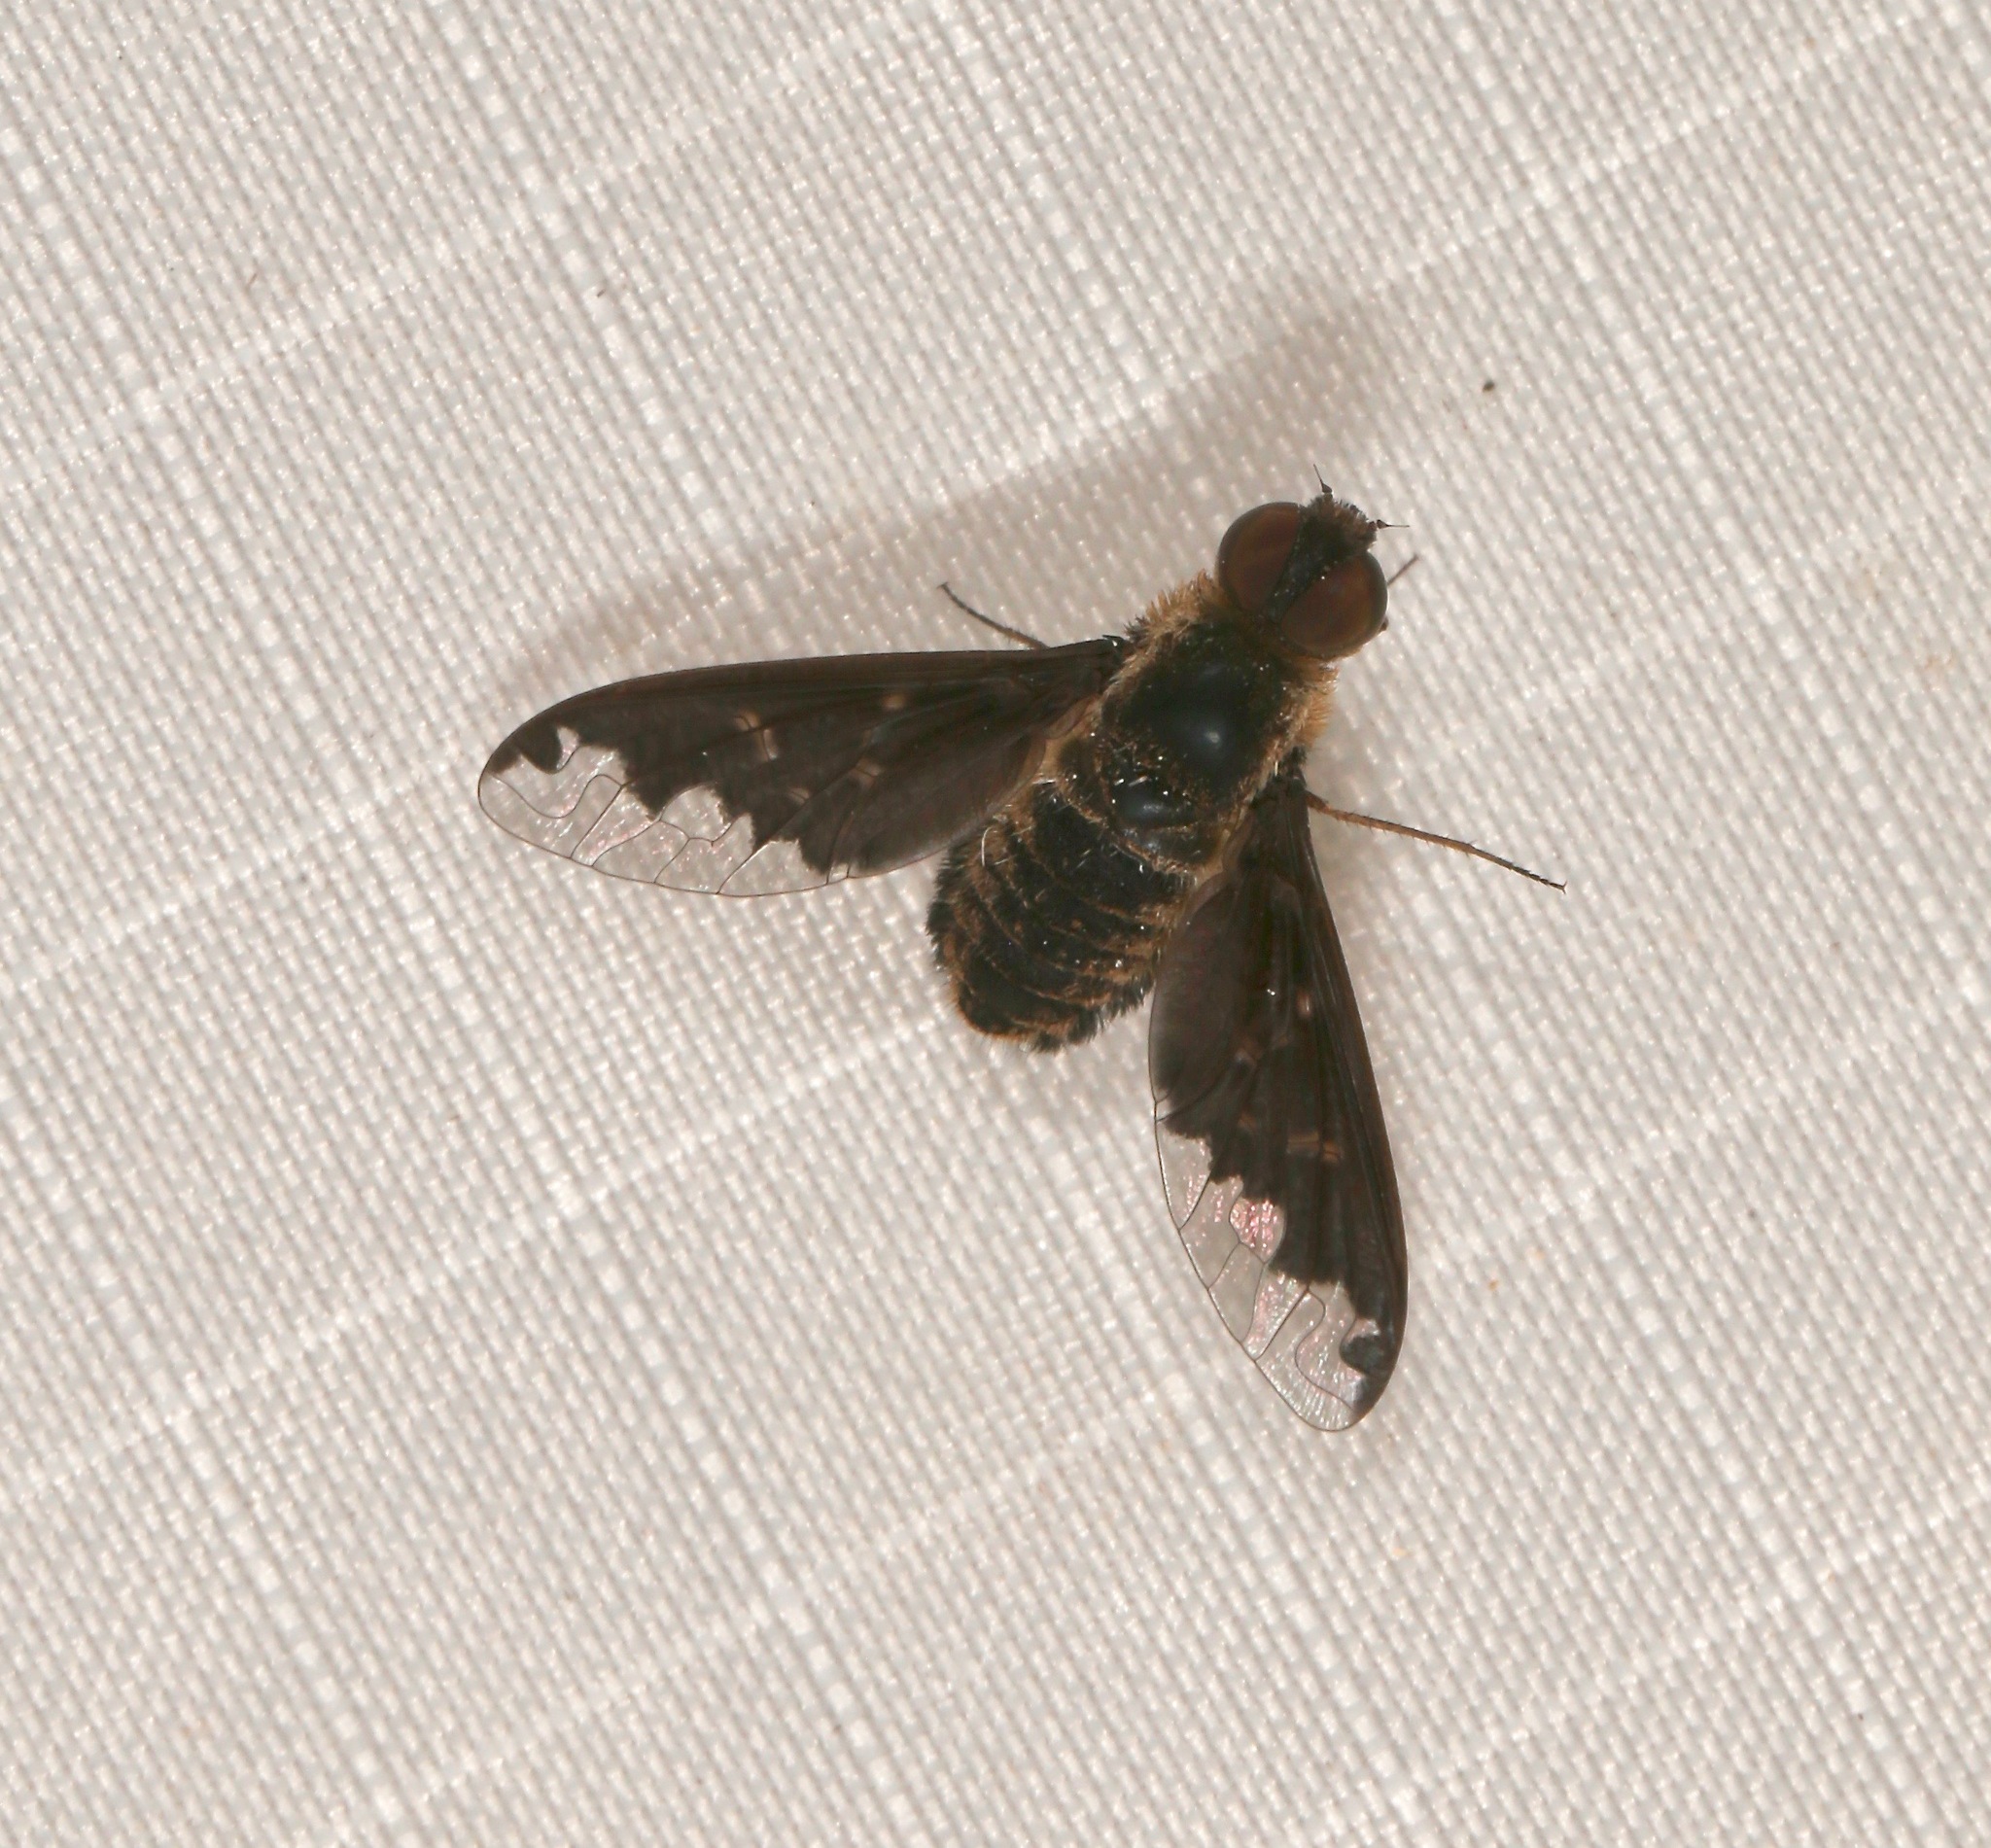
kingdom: Animalia
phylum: Arthropoda
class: Insecta
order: Diptera
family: Bombyliidae
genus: Hemipenthes
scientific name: Hemipenthes sinuosus
